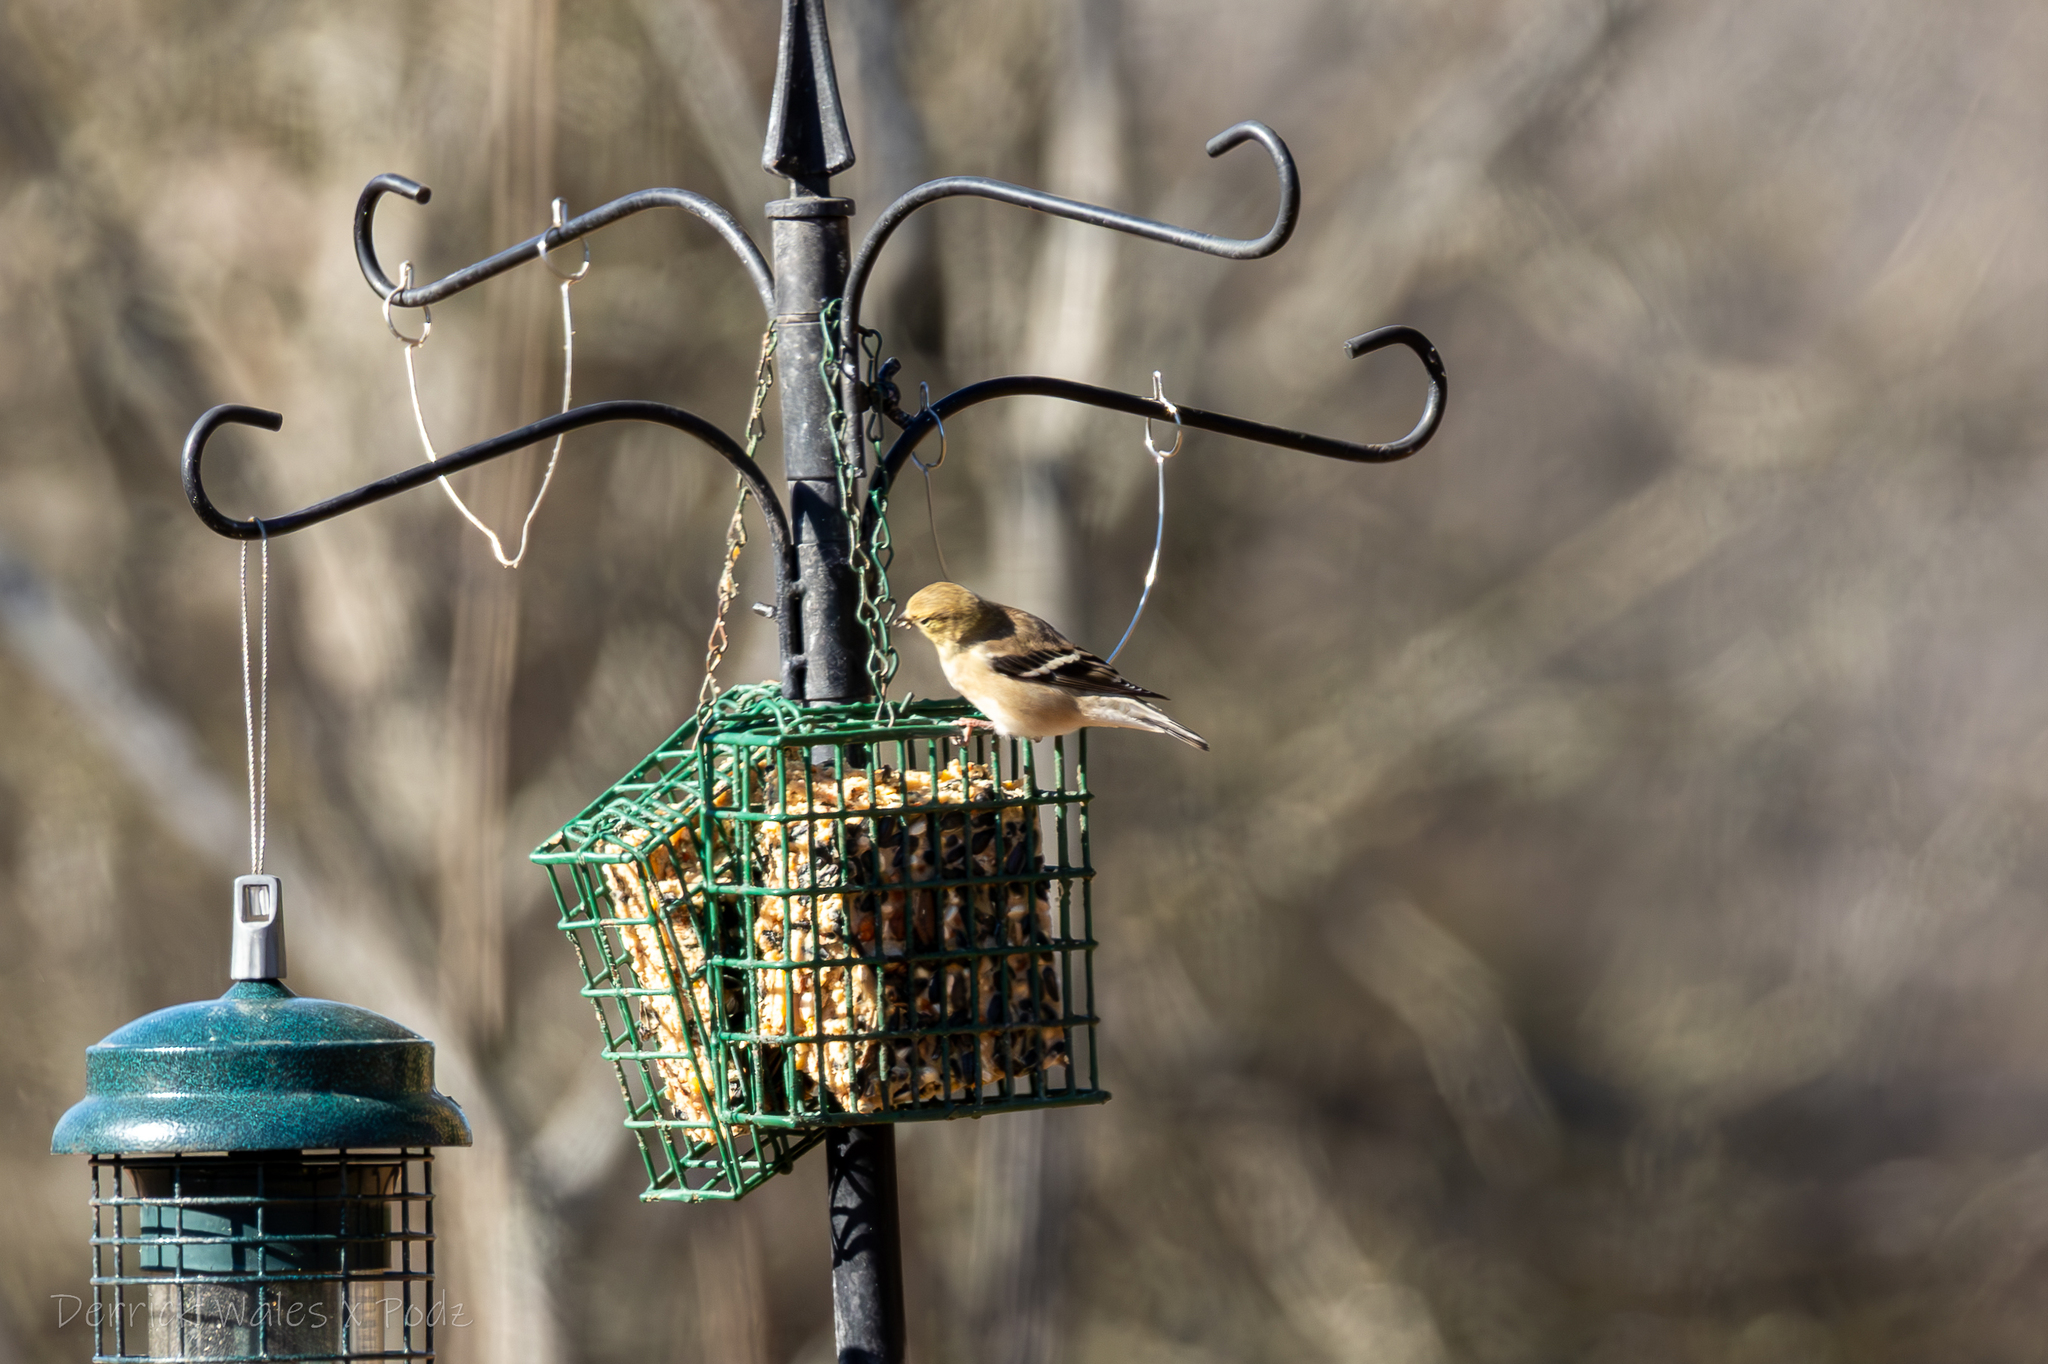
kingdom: Animalia
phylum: Chordata
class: Aves
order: Passeriformes
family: Fringillidae
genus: Spinus
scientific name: Spinus tristis
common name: American goldfinch
